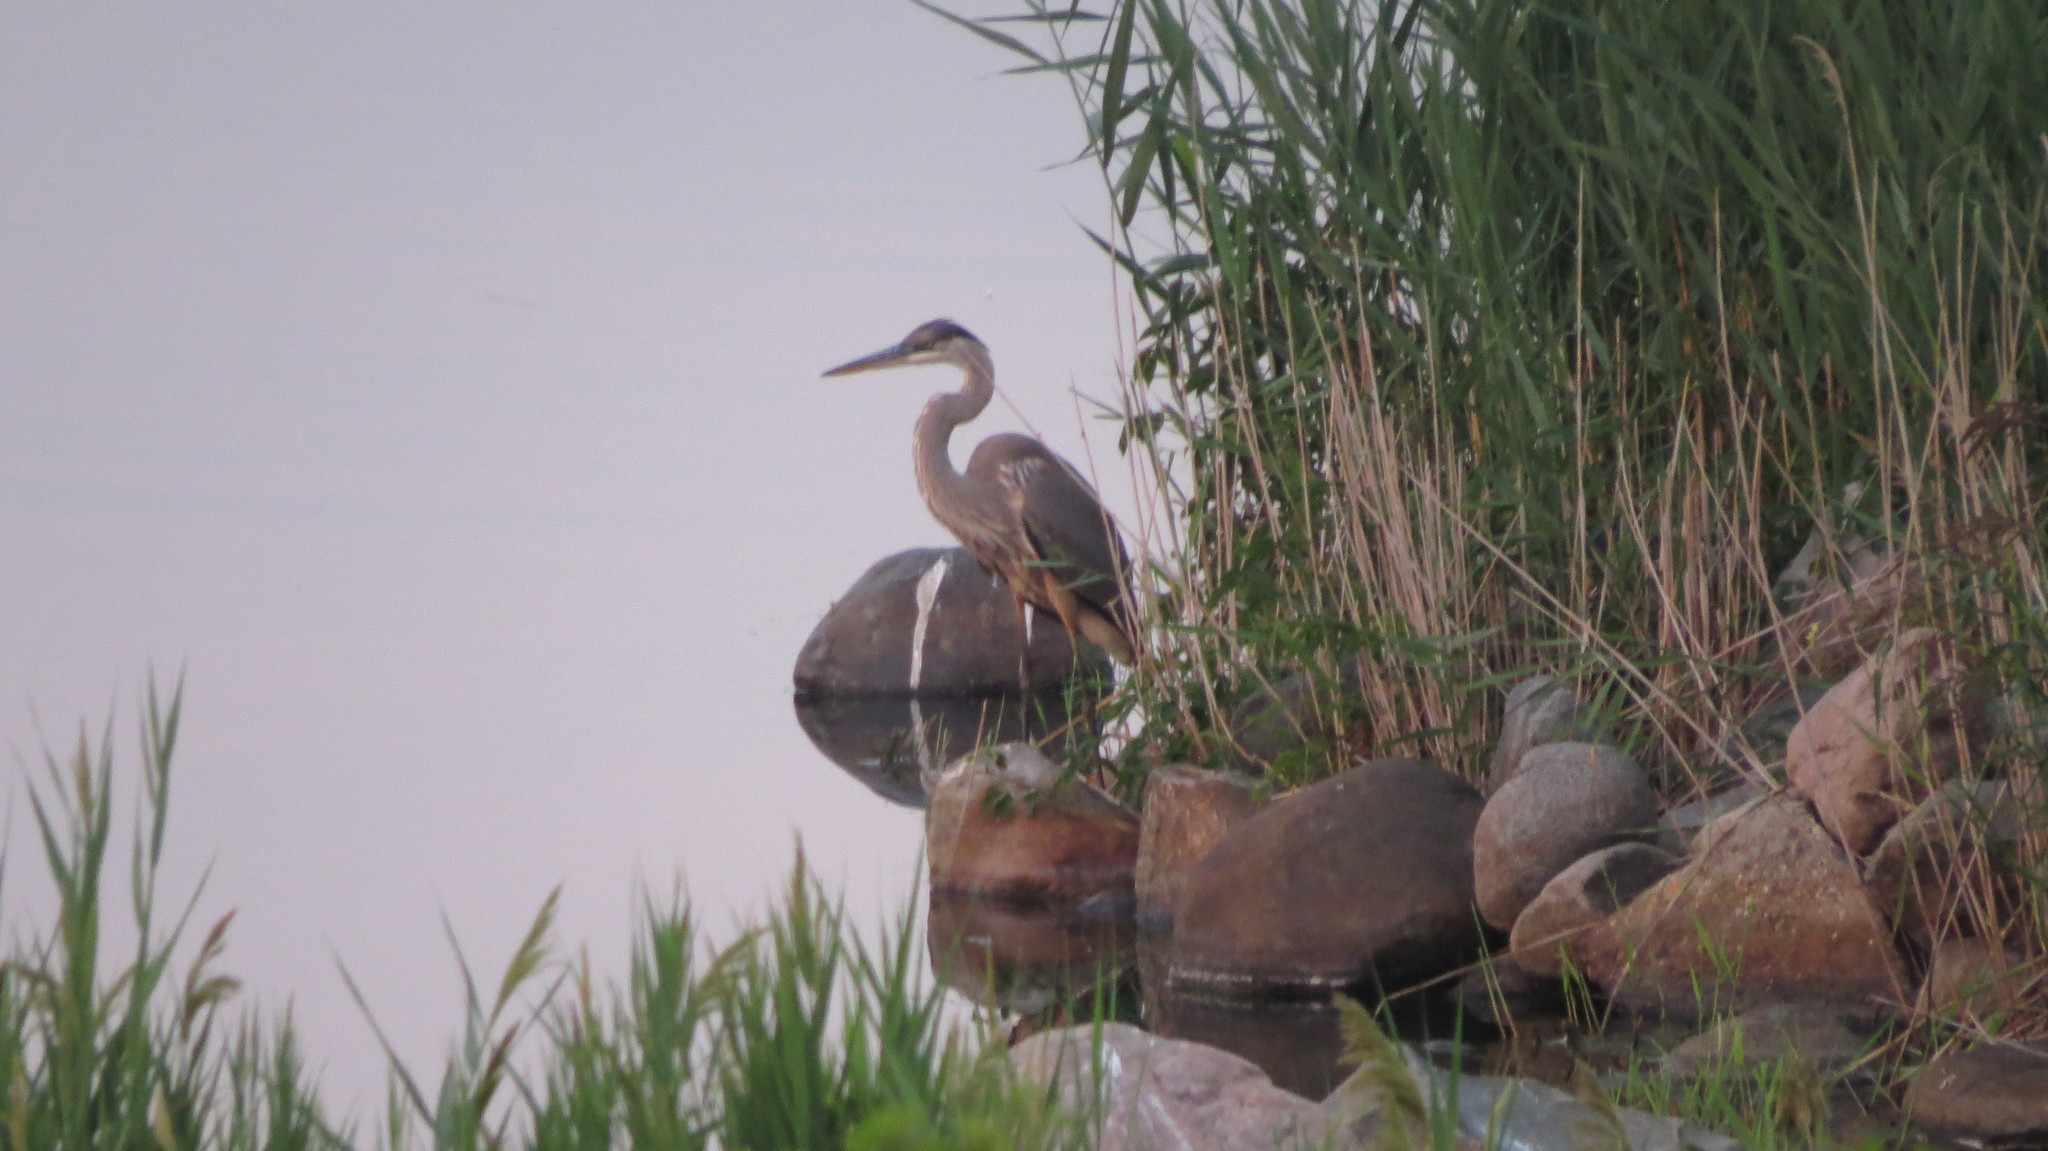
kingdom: Animalia
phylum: Chordata
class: Aves
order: Pelecaniformes
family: Ardeidae
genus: Ardea
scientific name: Ardea herodias
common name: Great blue heron
